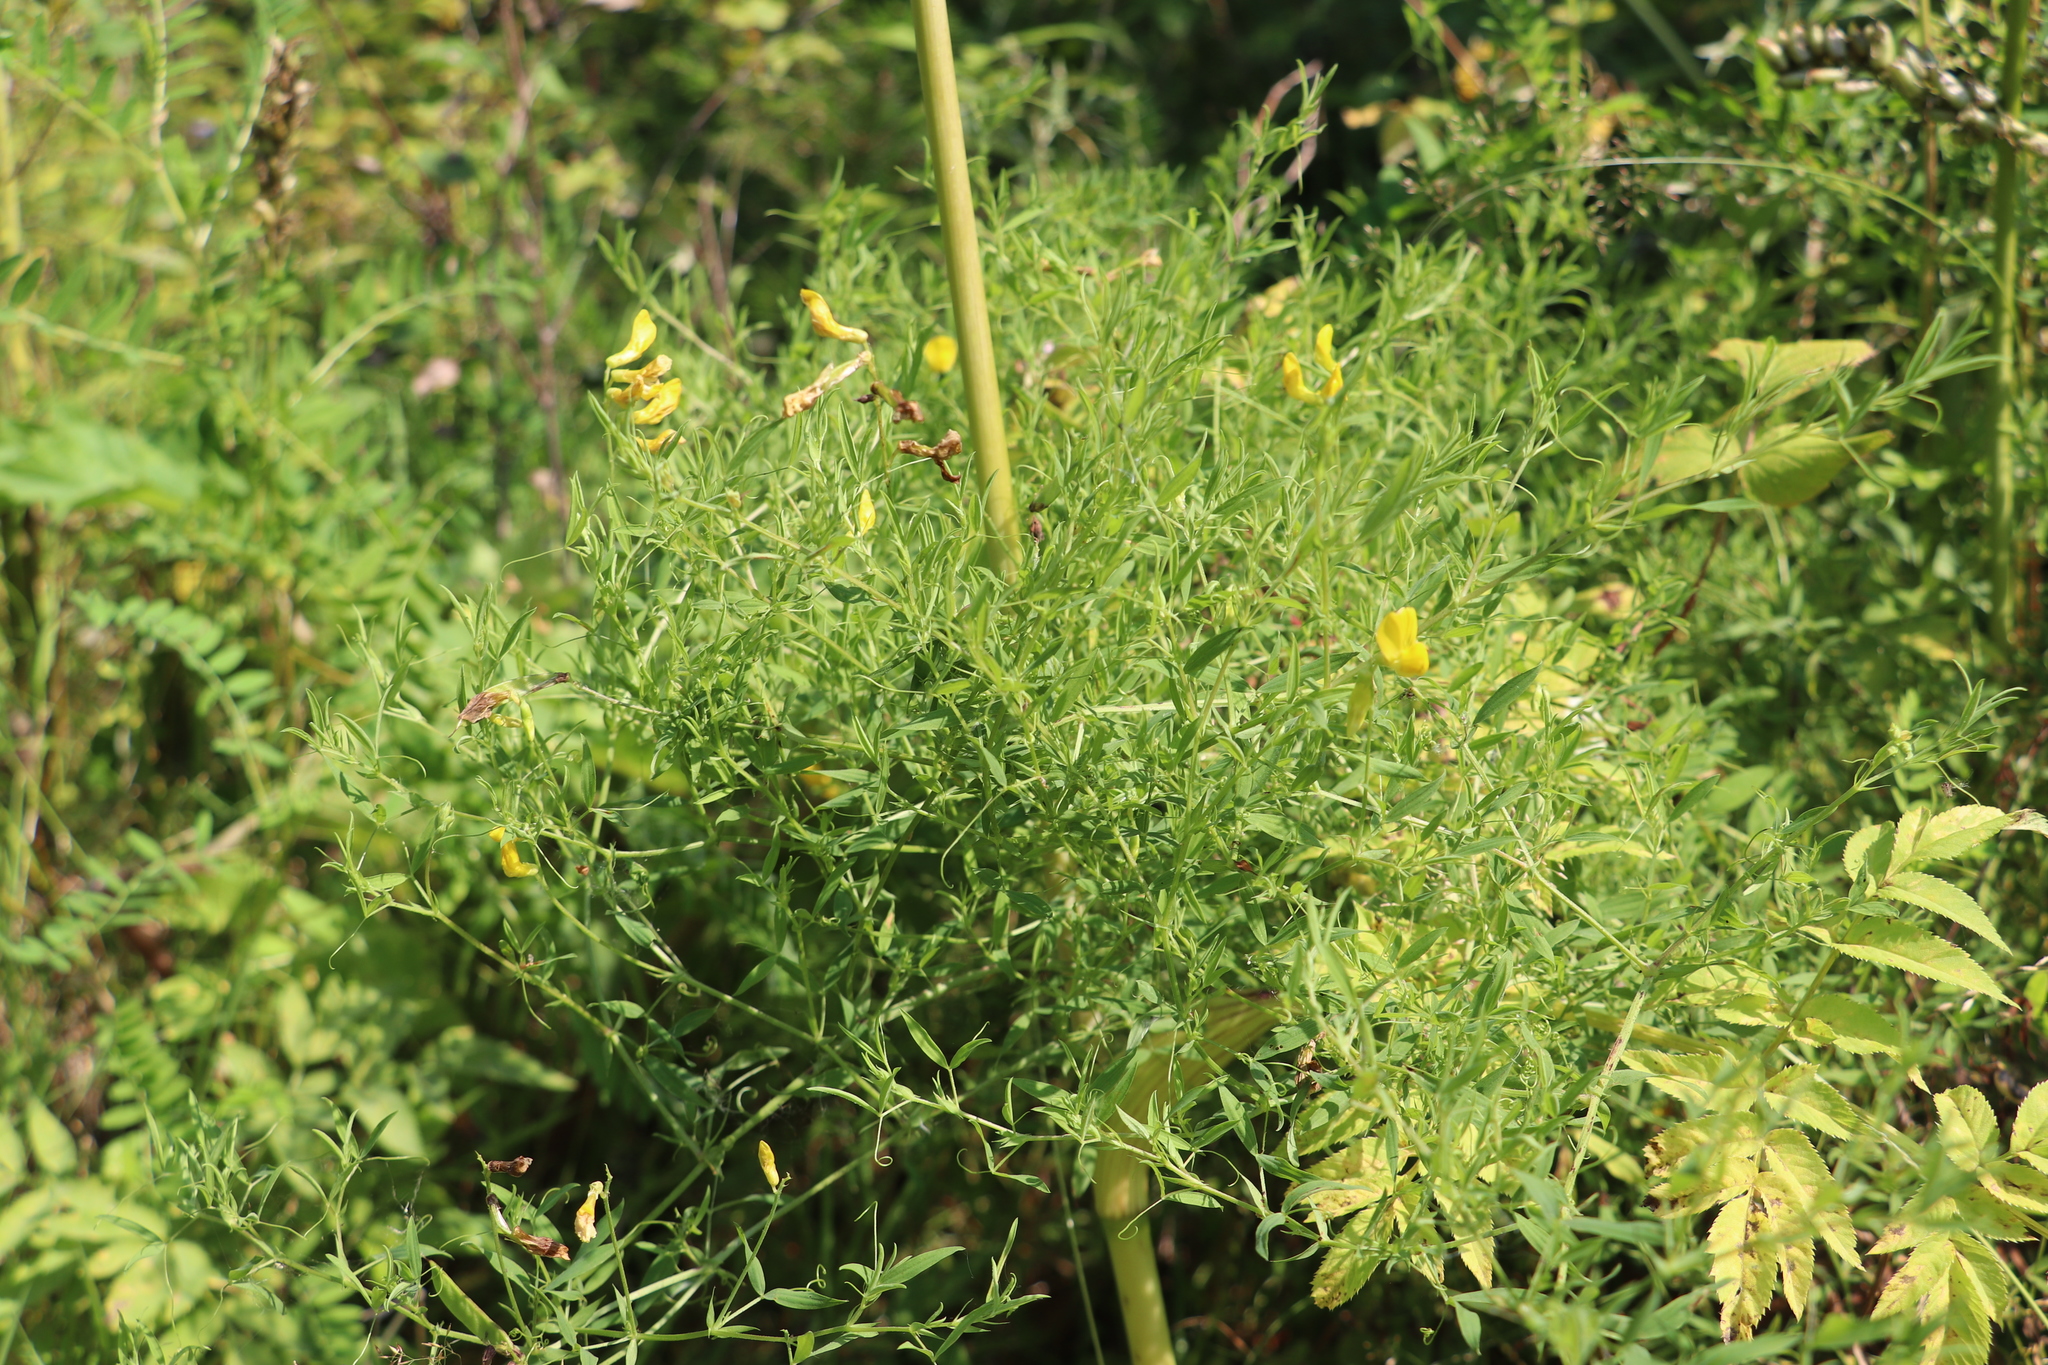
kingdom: Plantae
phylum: Tracheophyta
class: Magnoliopsida
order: Fabales
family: Fabaceae
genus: Lathyrus
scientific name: Lathyrus pratensis
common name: Meadow vetchling
